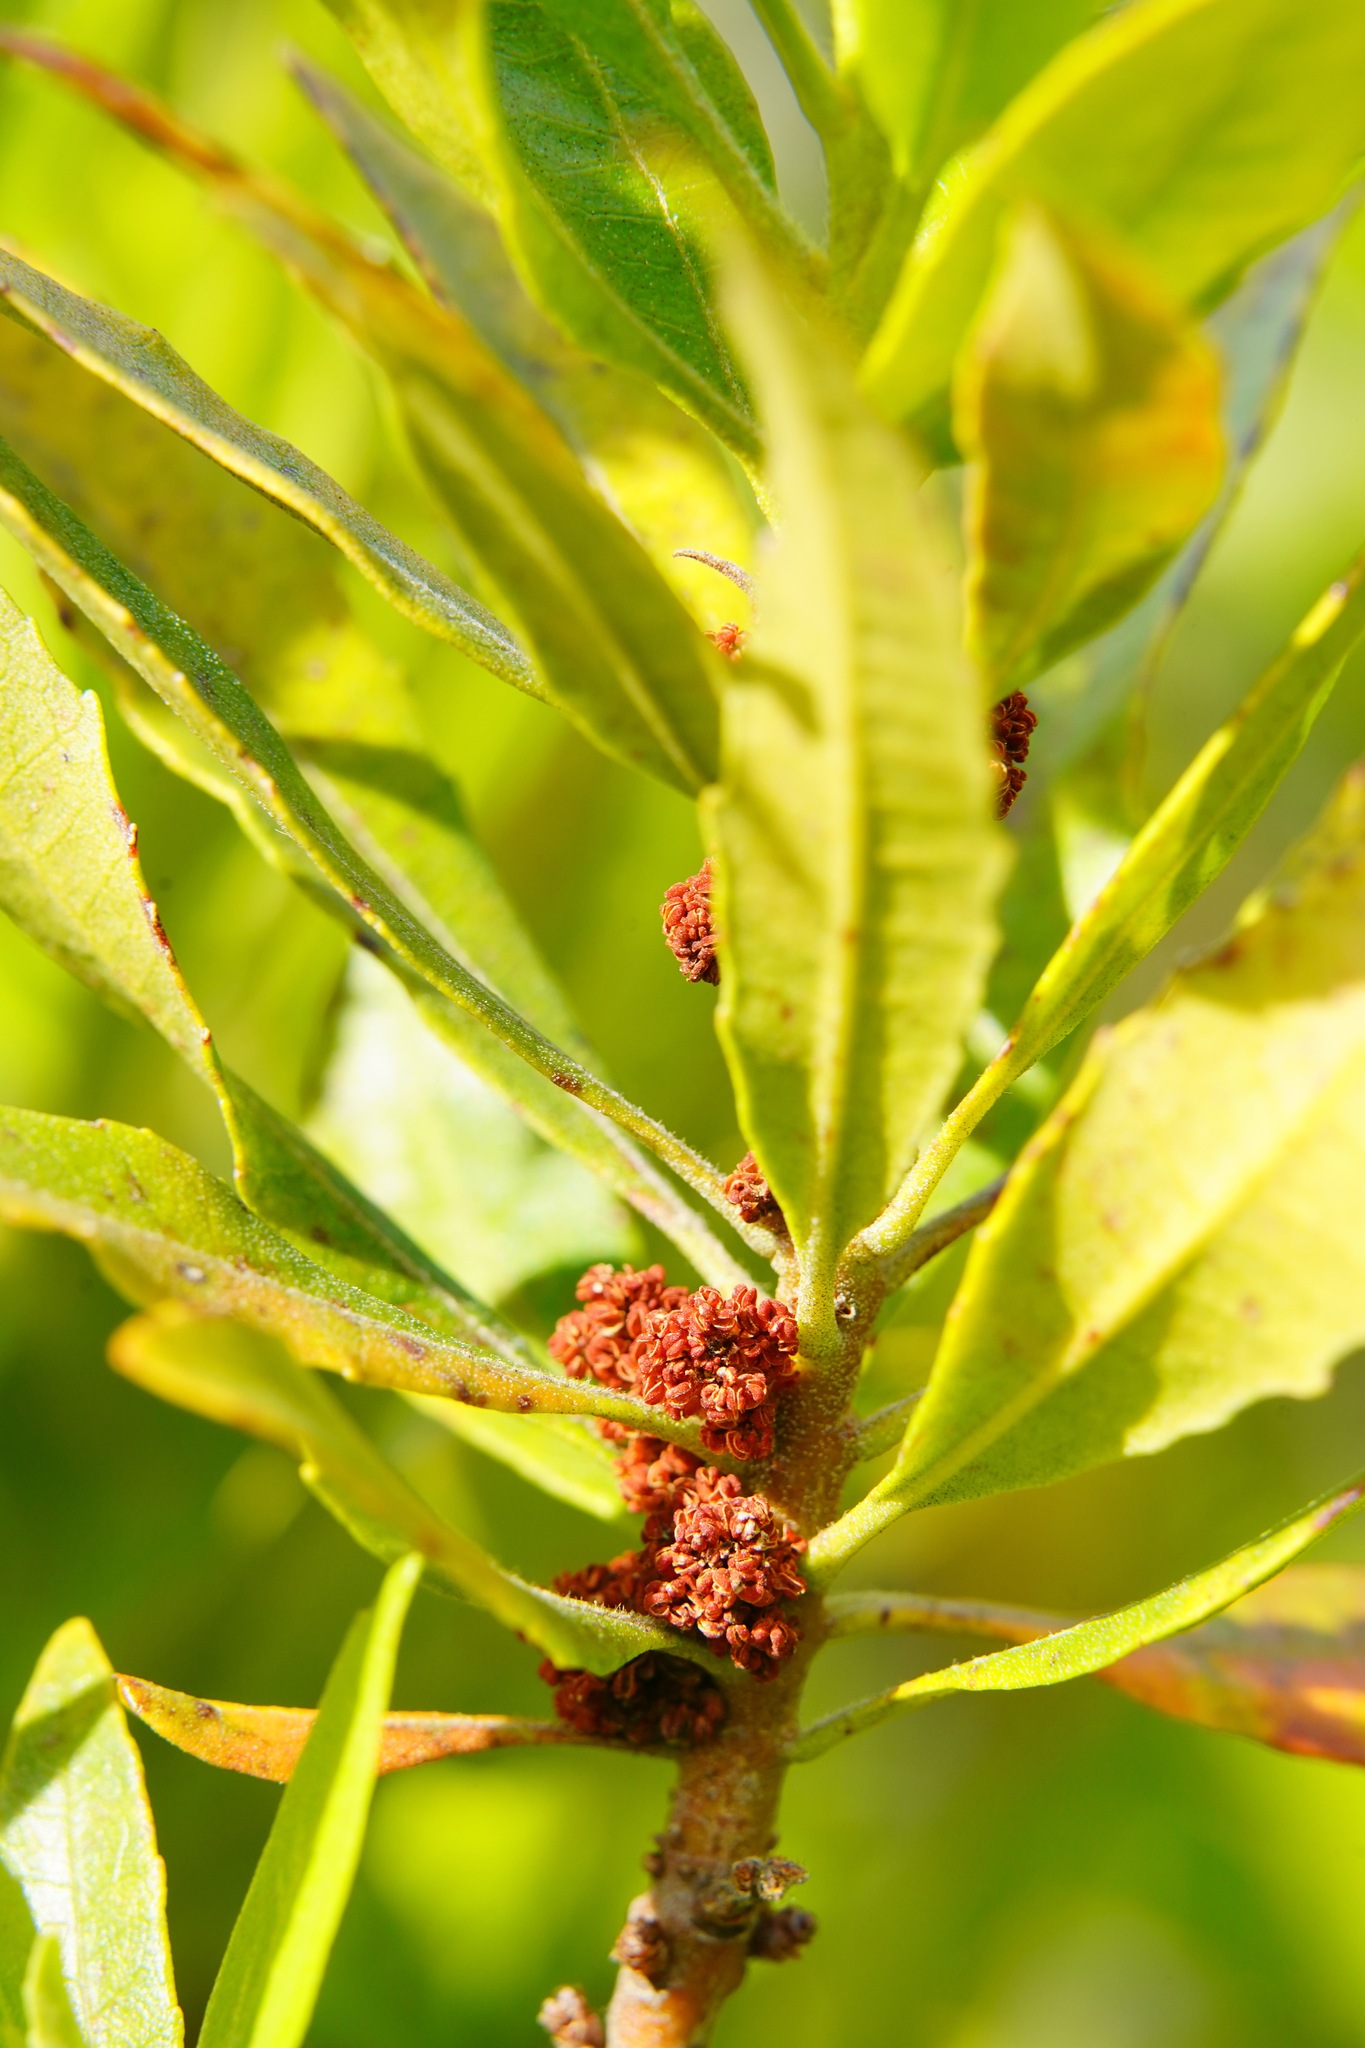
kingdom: Plantae
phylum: Tracheophyta
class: Magnoliopsida
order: Fagales
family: Myricaceae
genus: Morella
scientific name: Morella californica
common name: California wax-myrtle
